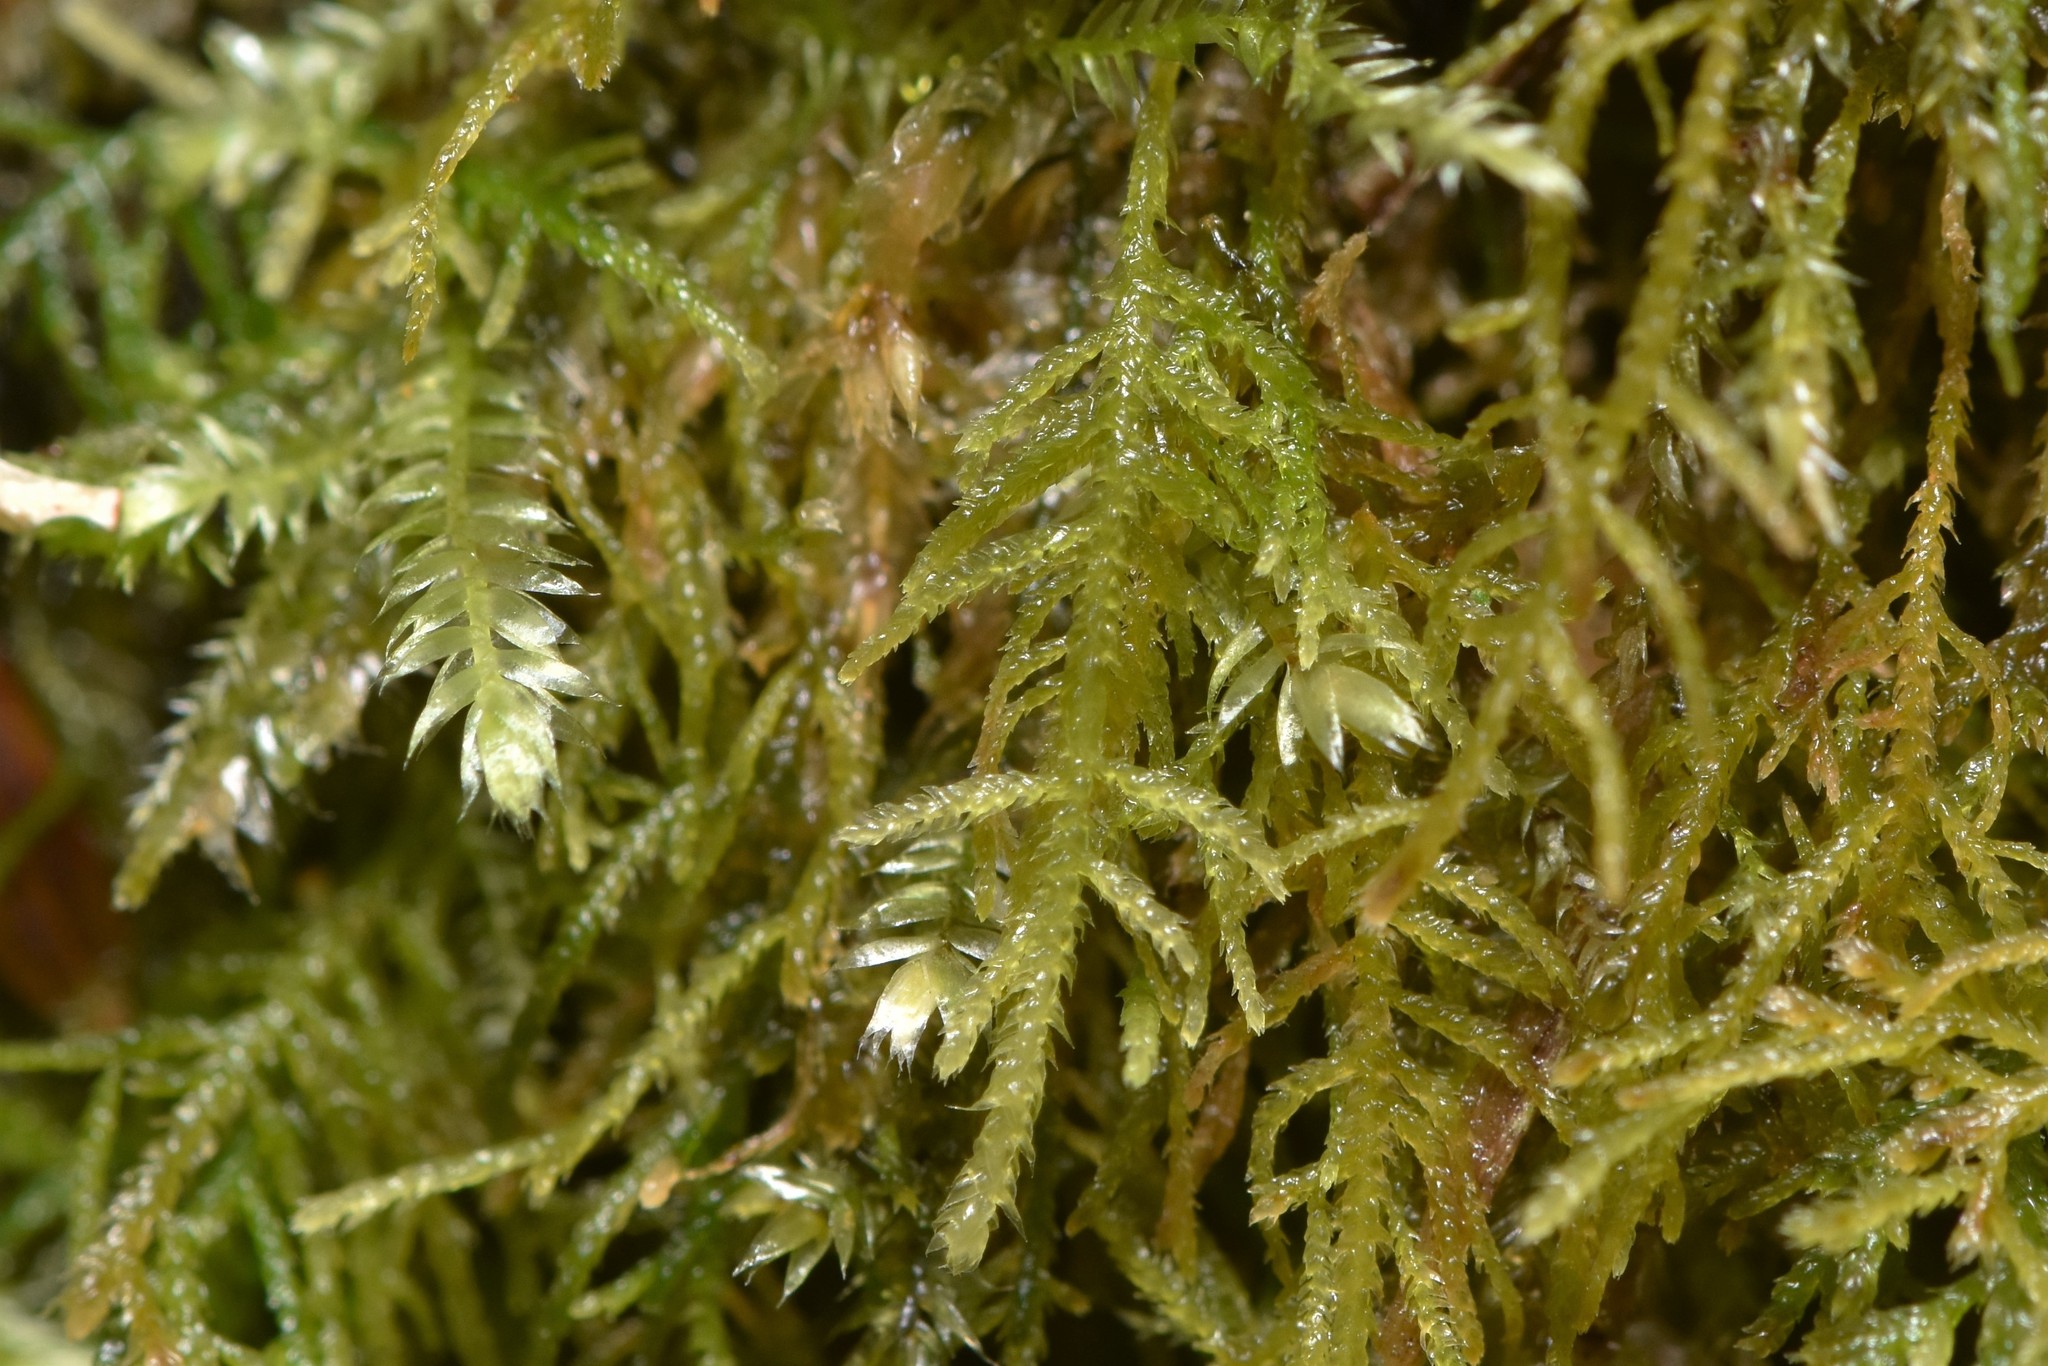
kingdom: Plantae
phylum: Bryophyta
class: Bryopsida
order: Hypnales
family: Lembophyllaceae
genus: Heterocladium
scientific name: Heterocladium macounii
